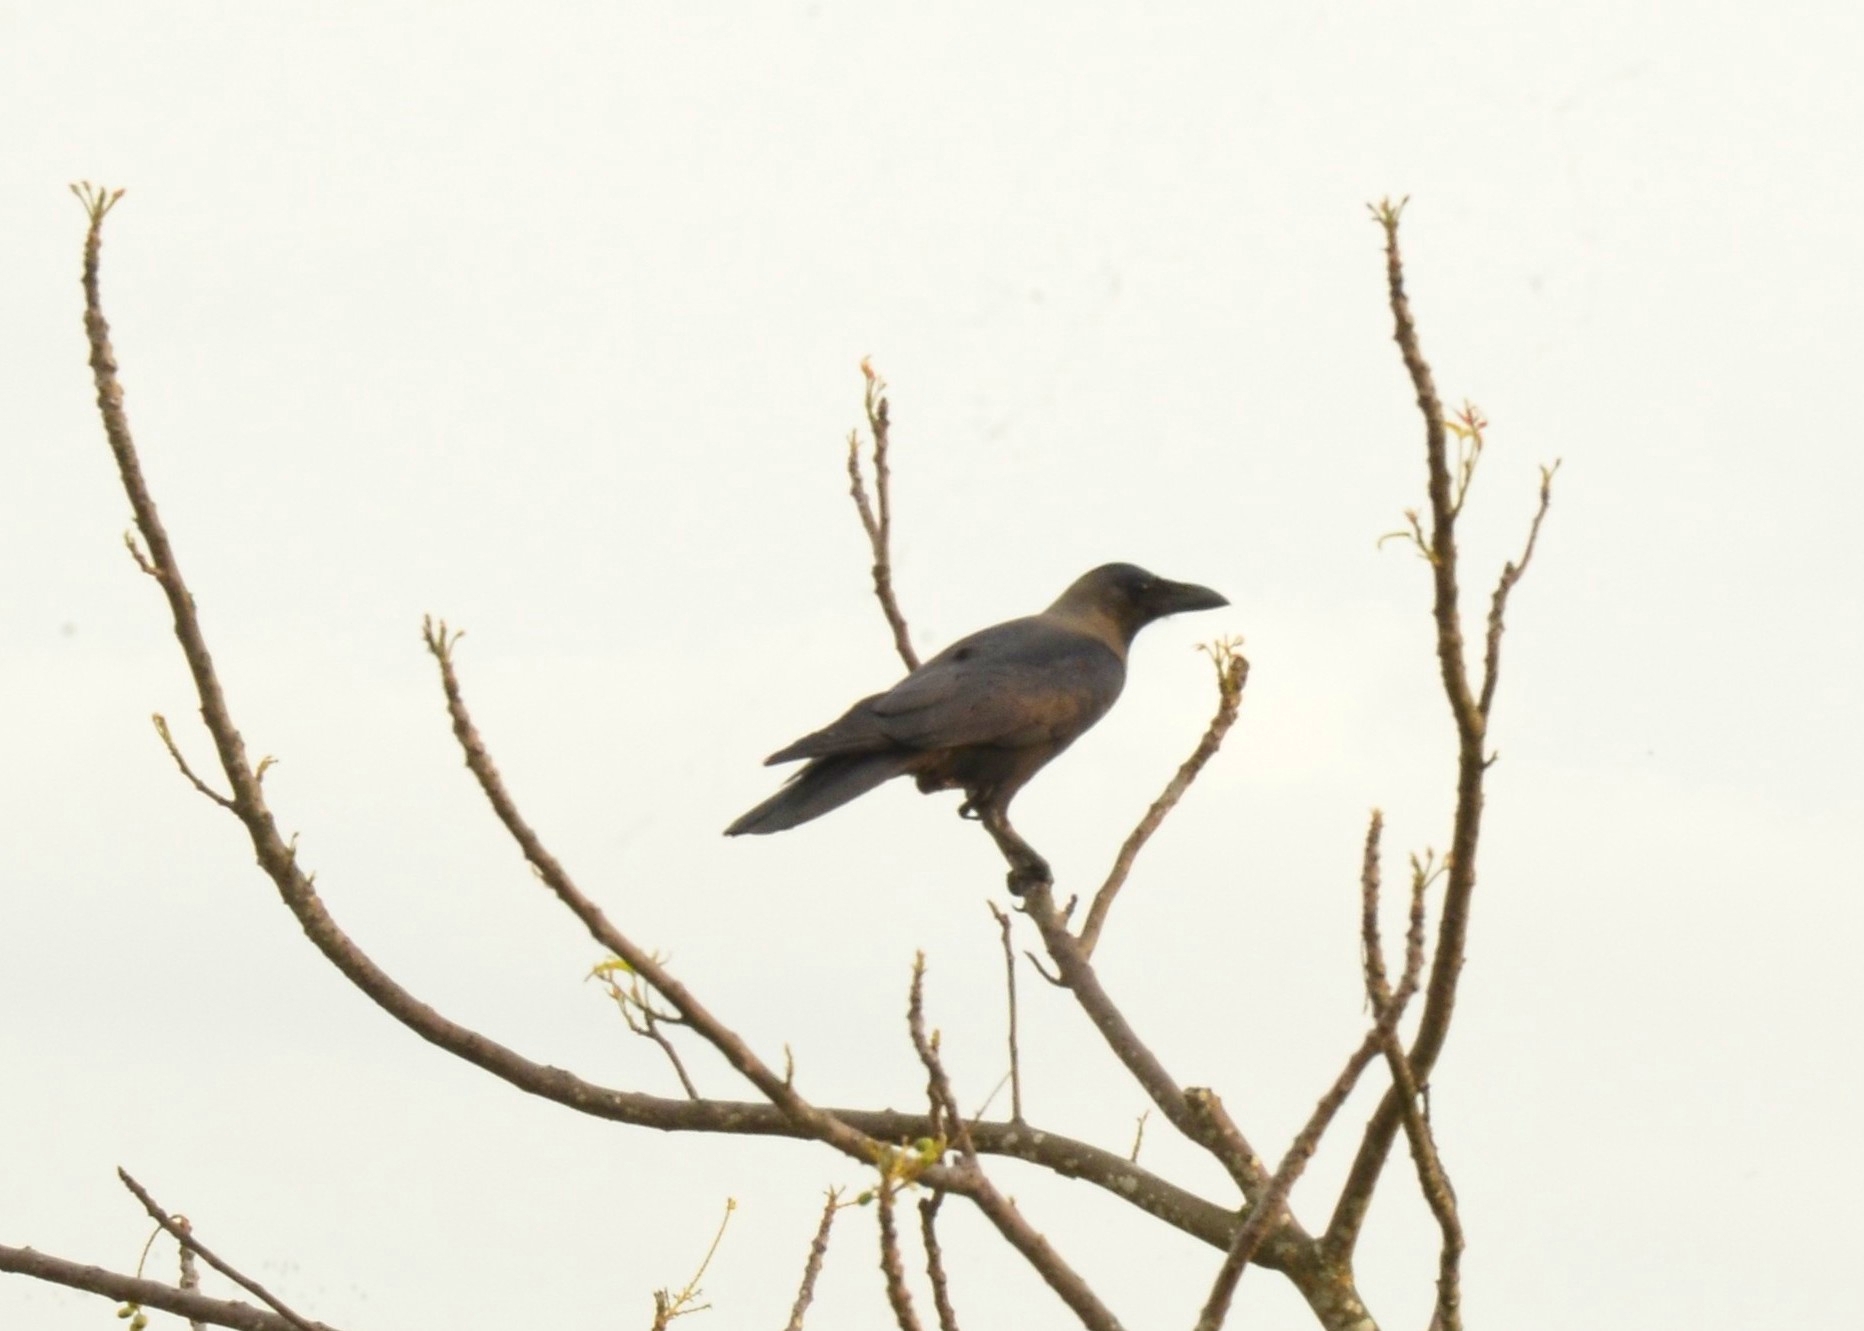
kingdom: Animalia
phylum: Chordata
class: Aves
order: Passeriformes
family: Corvidae
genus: Corvus
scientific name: Corvus splendens
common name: House crow
